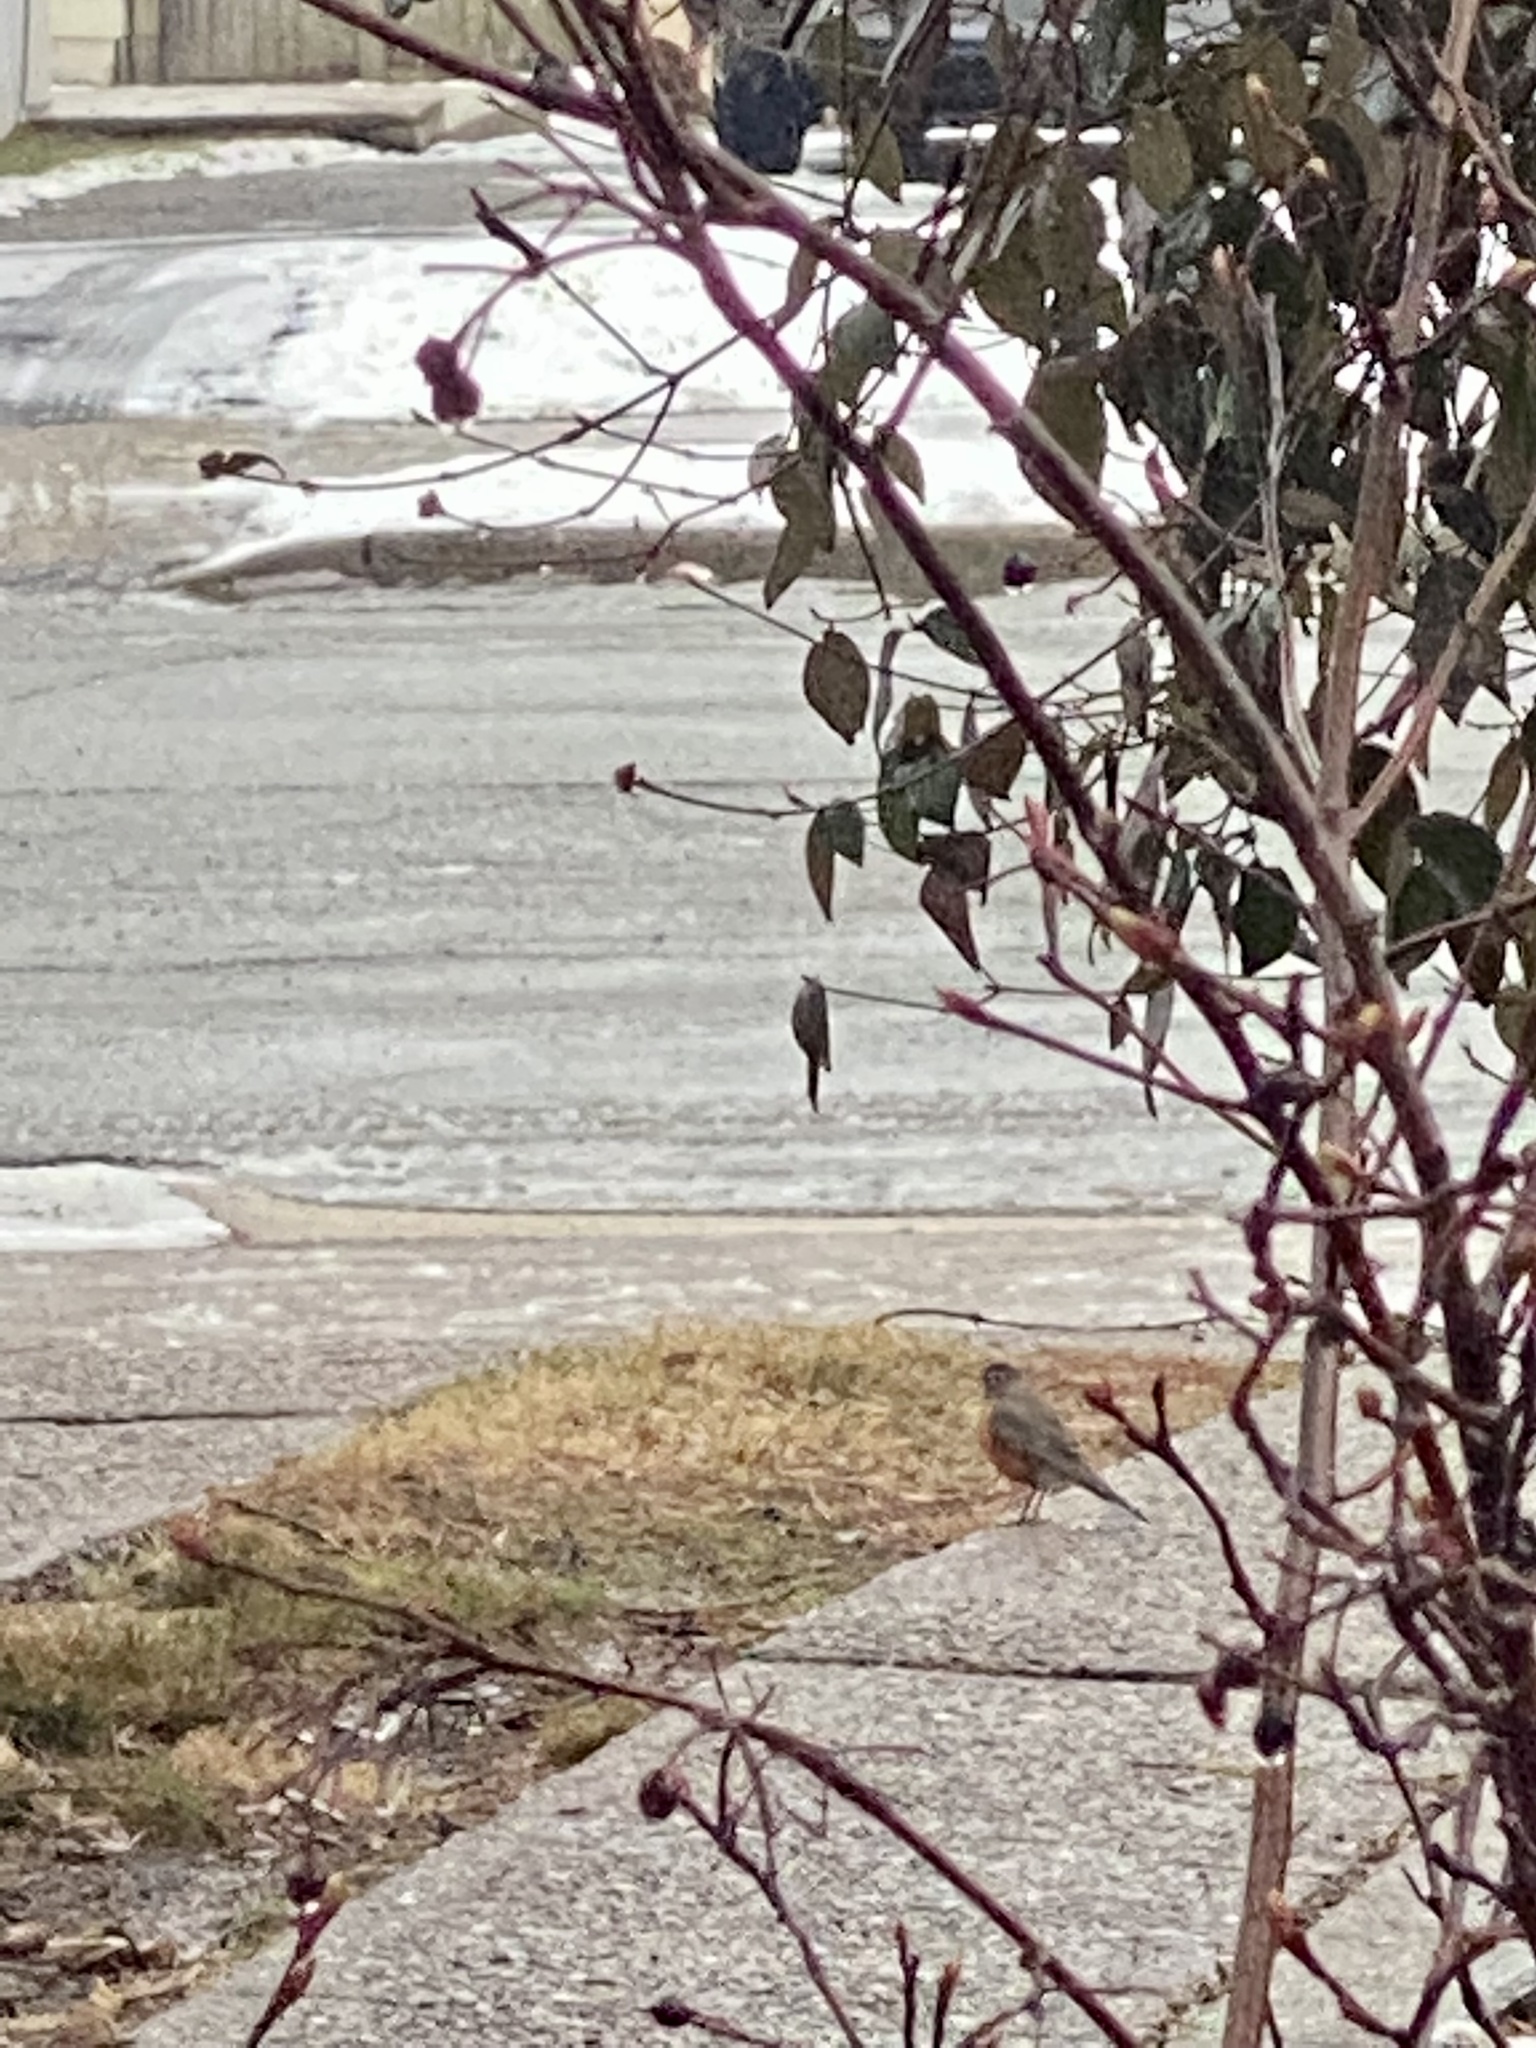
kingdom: Animalia
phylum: Chordata
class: Aves
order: Passeriformes
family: Turdidae
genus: Turdus
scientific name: Turdus migratorius
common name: American robin
